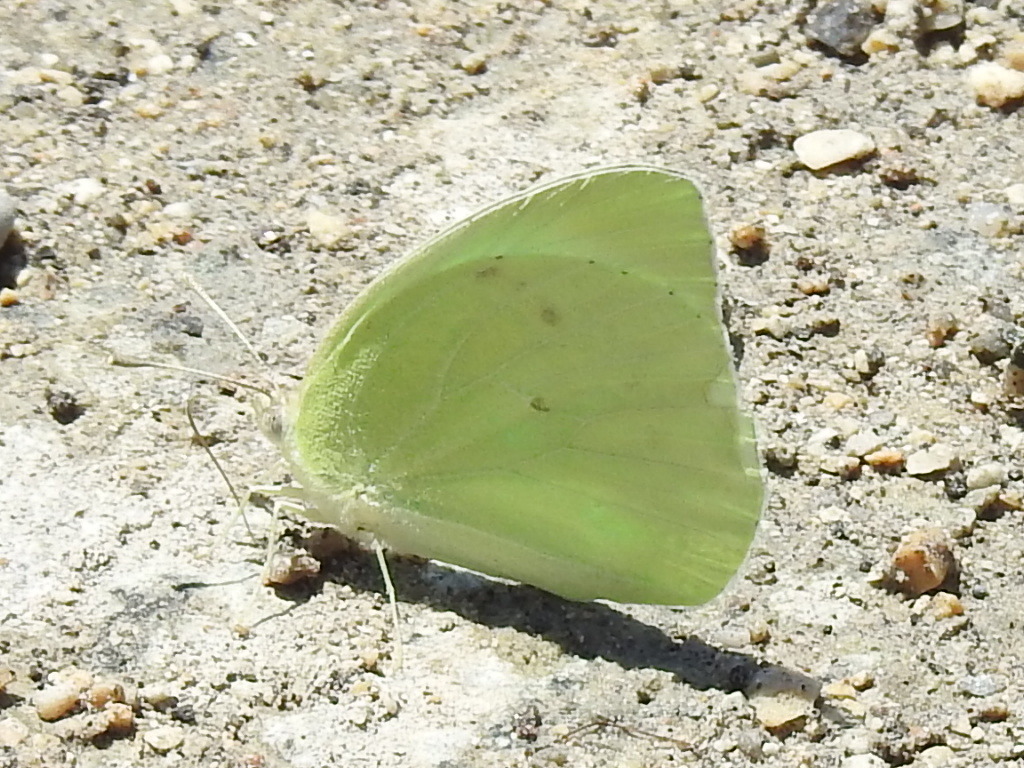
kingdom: Animalia
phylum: Arthropoda
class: Insecta
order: Lepidoptera
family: Pieridae
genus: Kricogonia
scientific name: Kricogonia lyside
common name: Guayacan sulphur,
